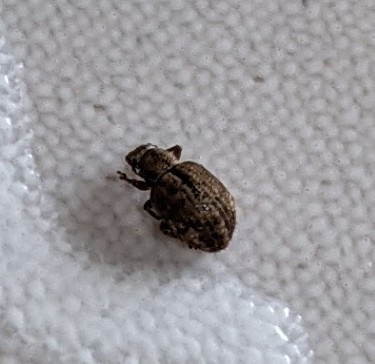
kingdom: Animalia
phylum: Arthropoda
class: Insecta
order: Coleoptera
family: Curculionidae
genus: Strophosoma
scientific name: Strophosoma melanogrammum
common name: Weevil
